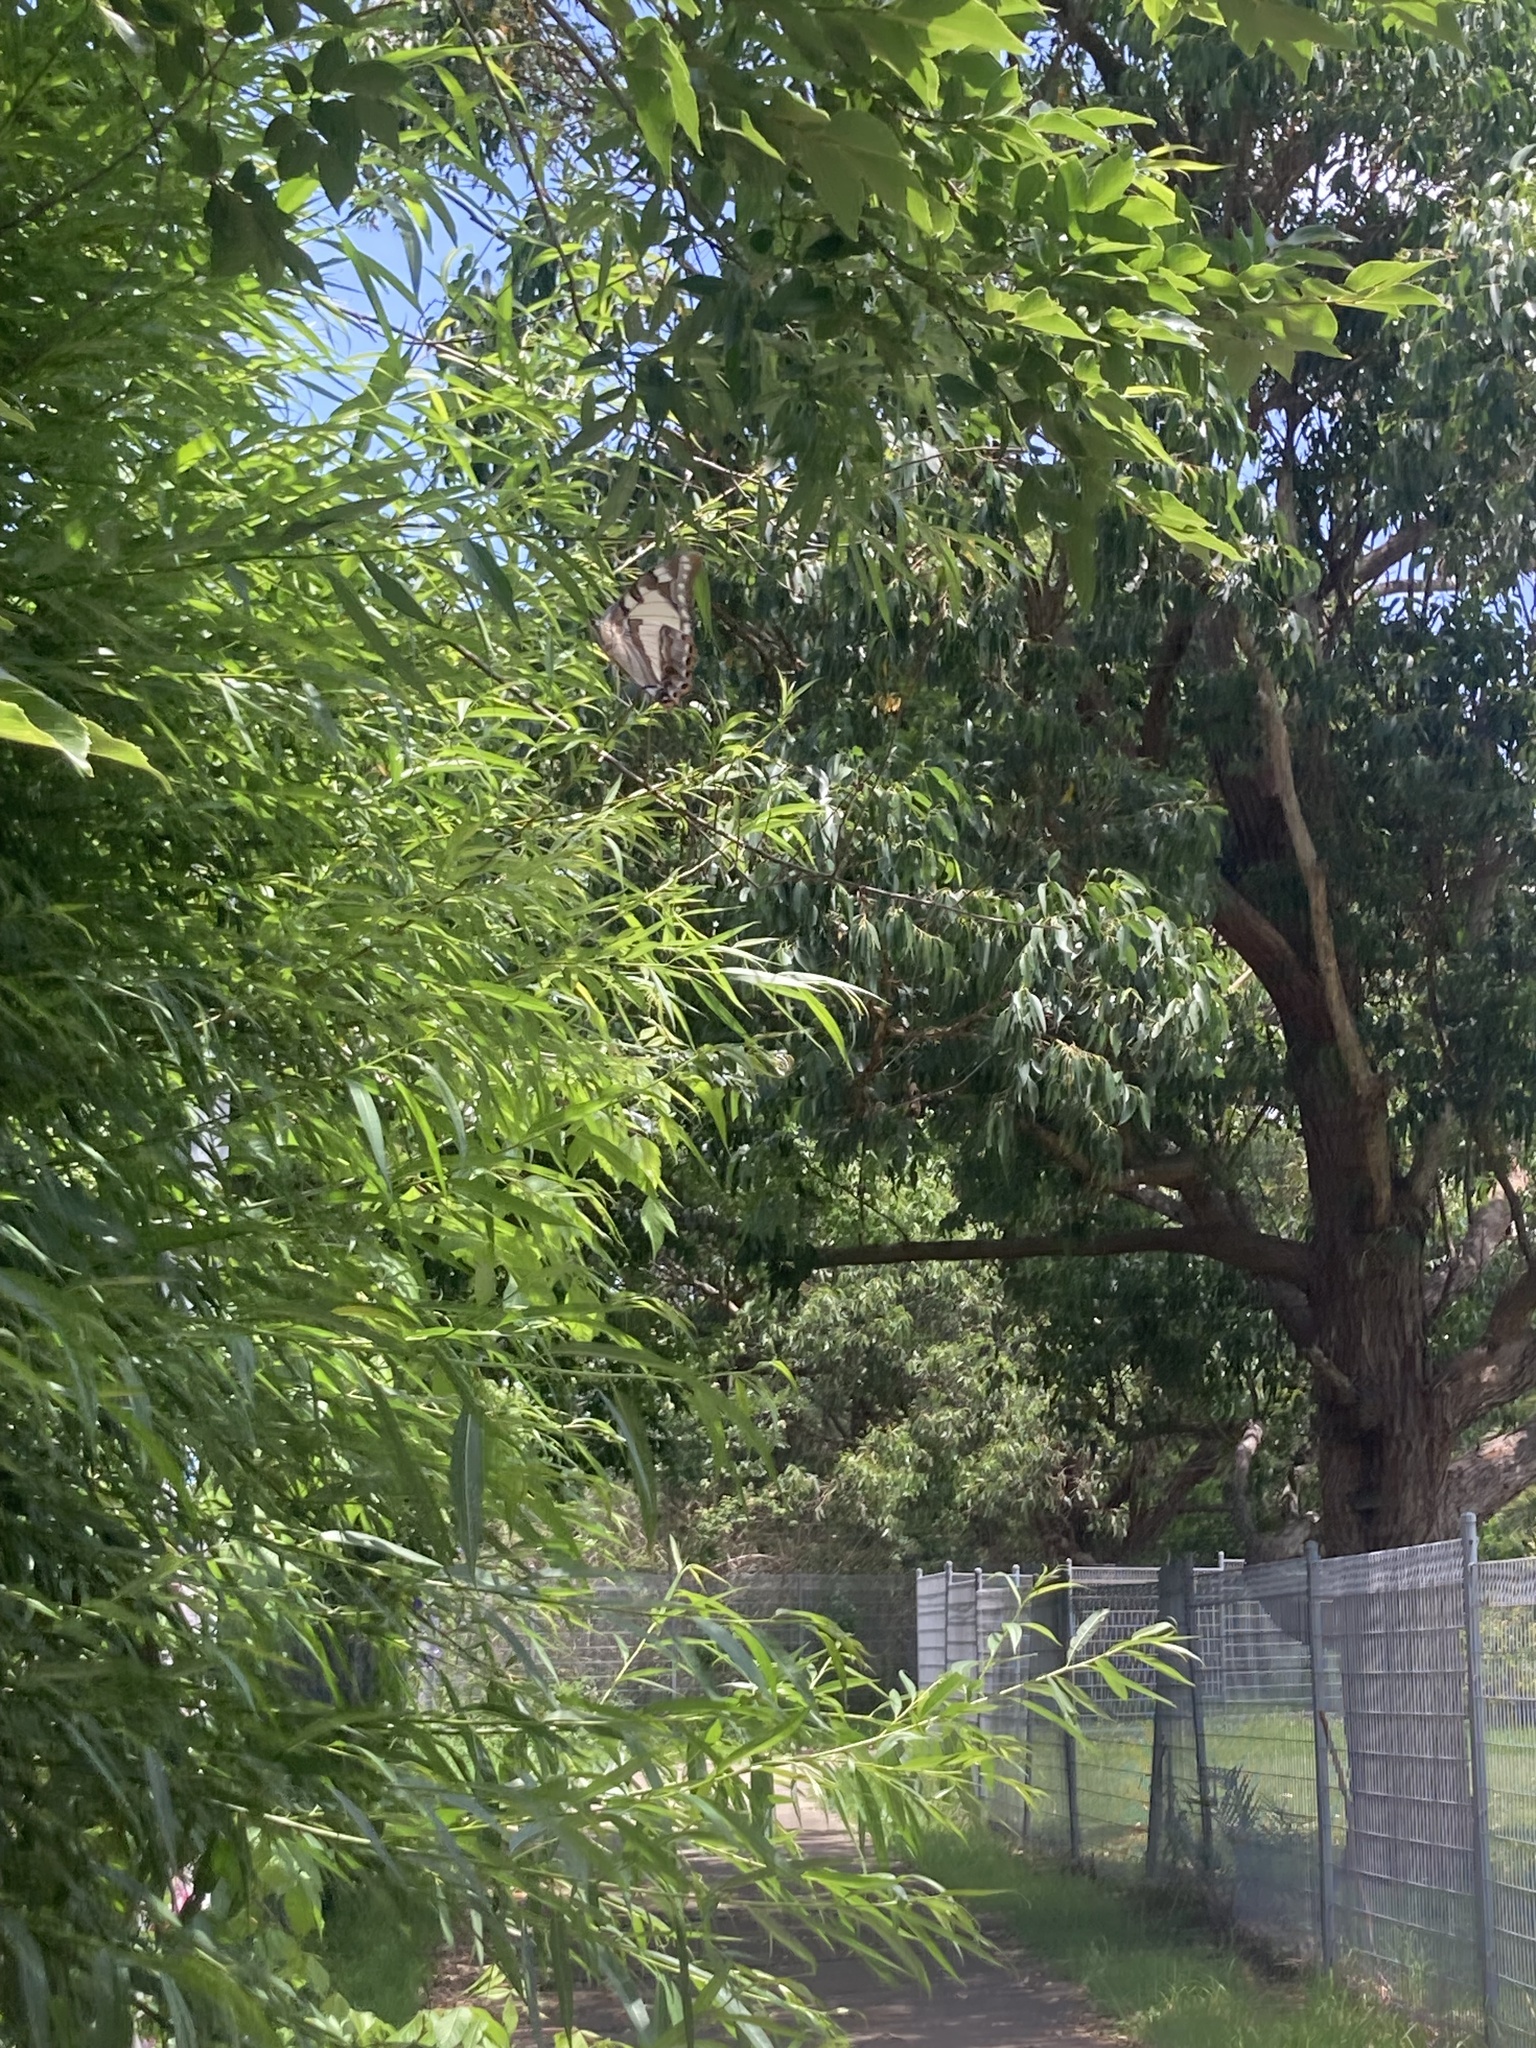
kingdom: Animalia
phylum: Arthropoda
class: Insecta
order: Lepidoptera
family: Nymphalidae
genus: Charaxes
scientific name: Charaxes
